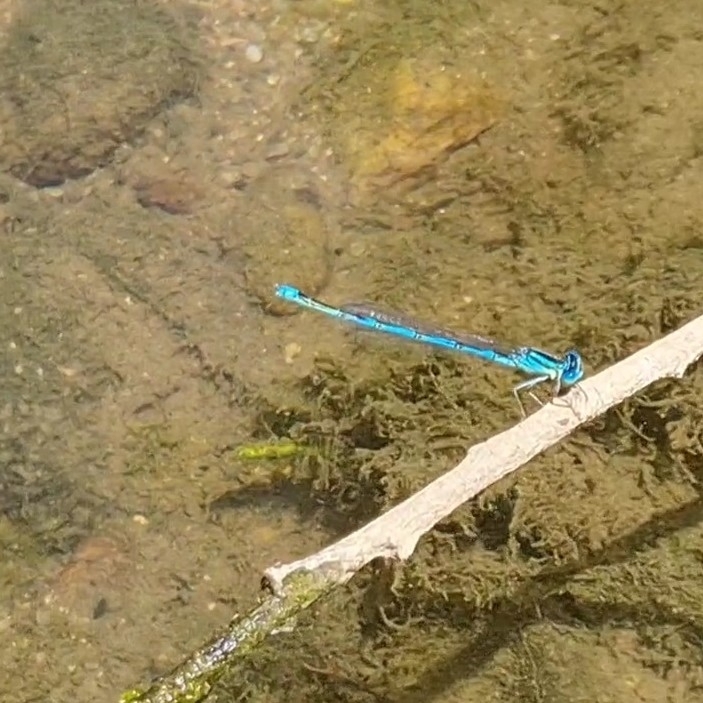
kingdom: Animalia
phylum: Arthropoda
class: Insecta
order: Odonata
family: Coenagrionidae
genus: Erythromma
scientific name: Erythromma lindenii
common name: Blue-eye
